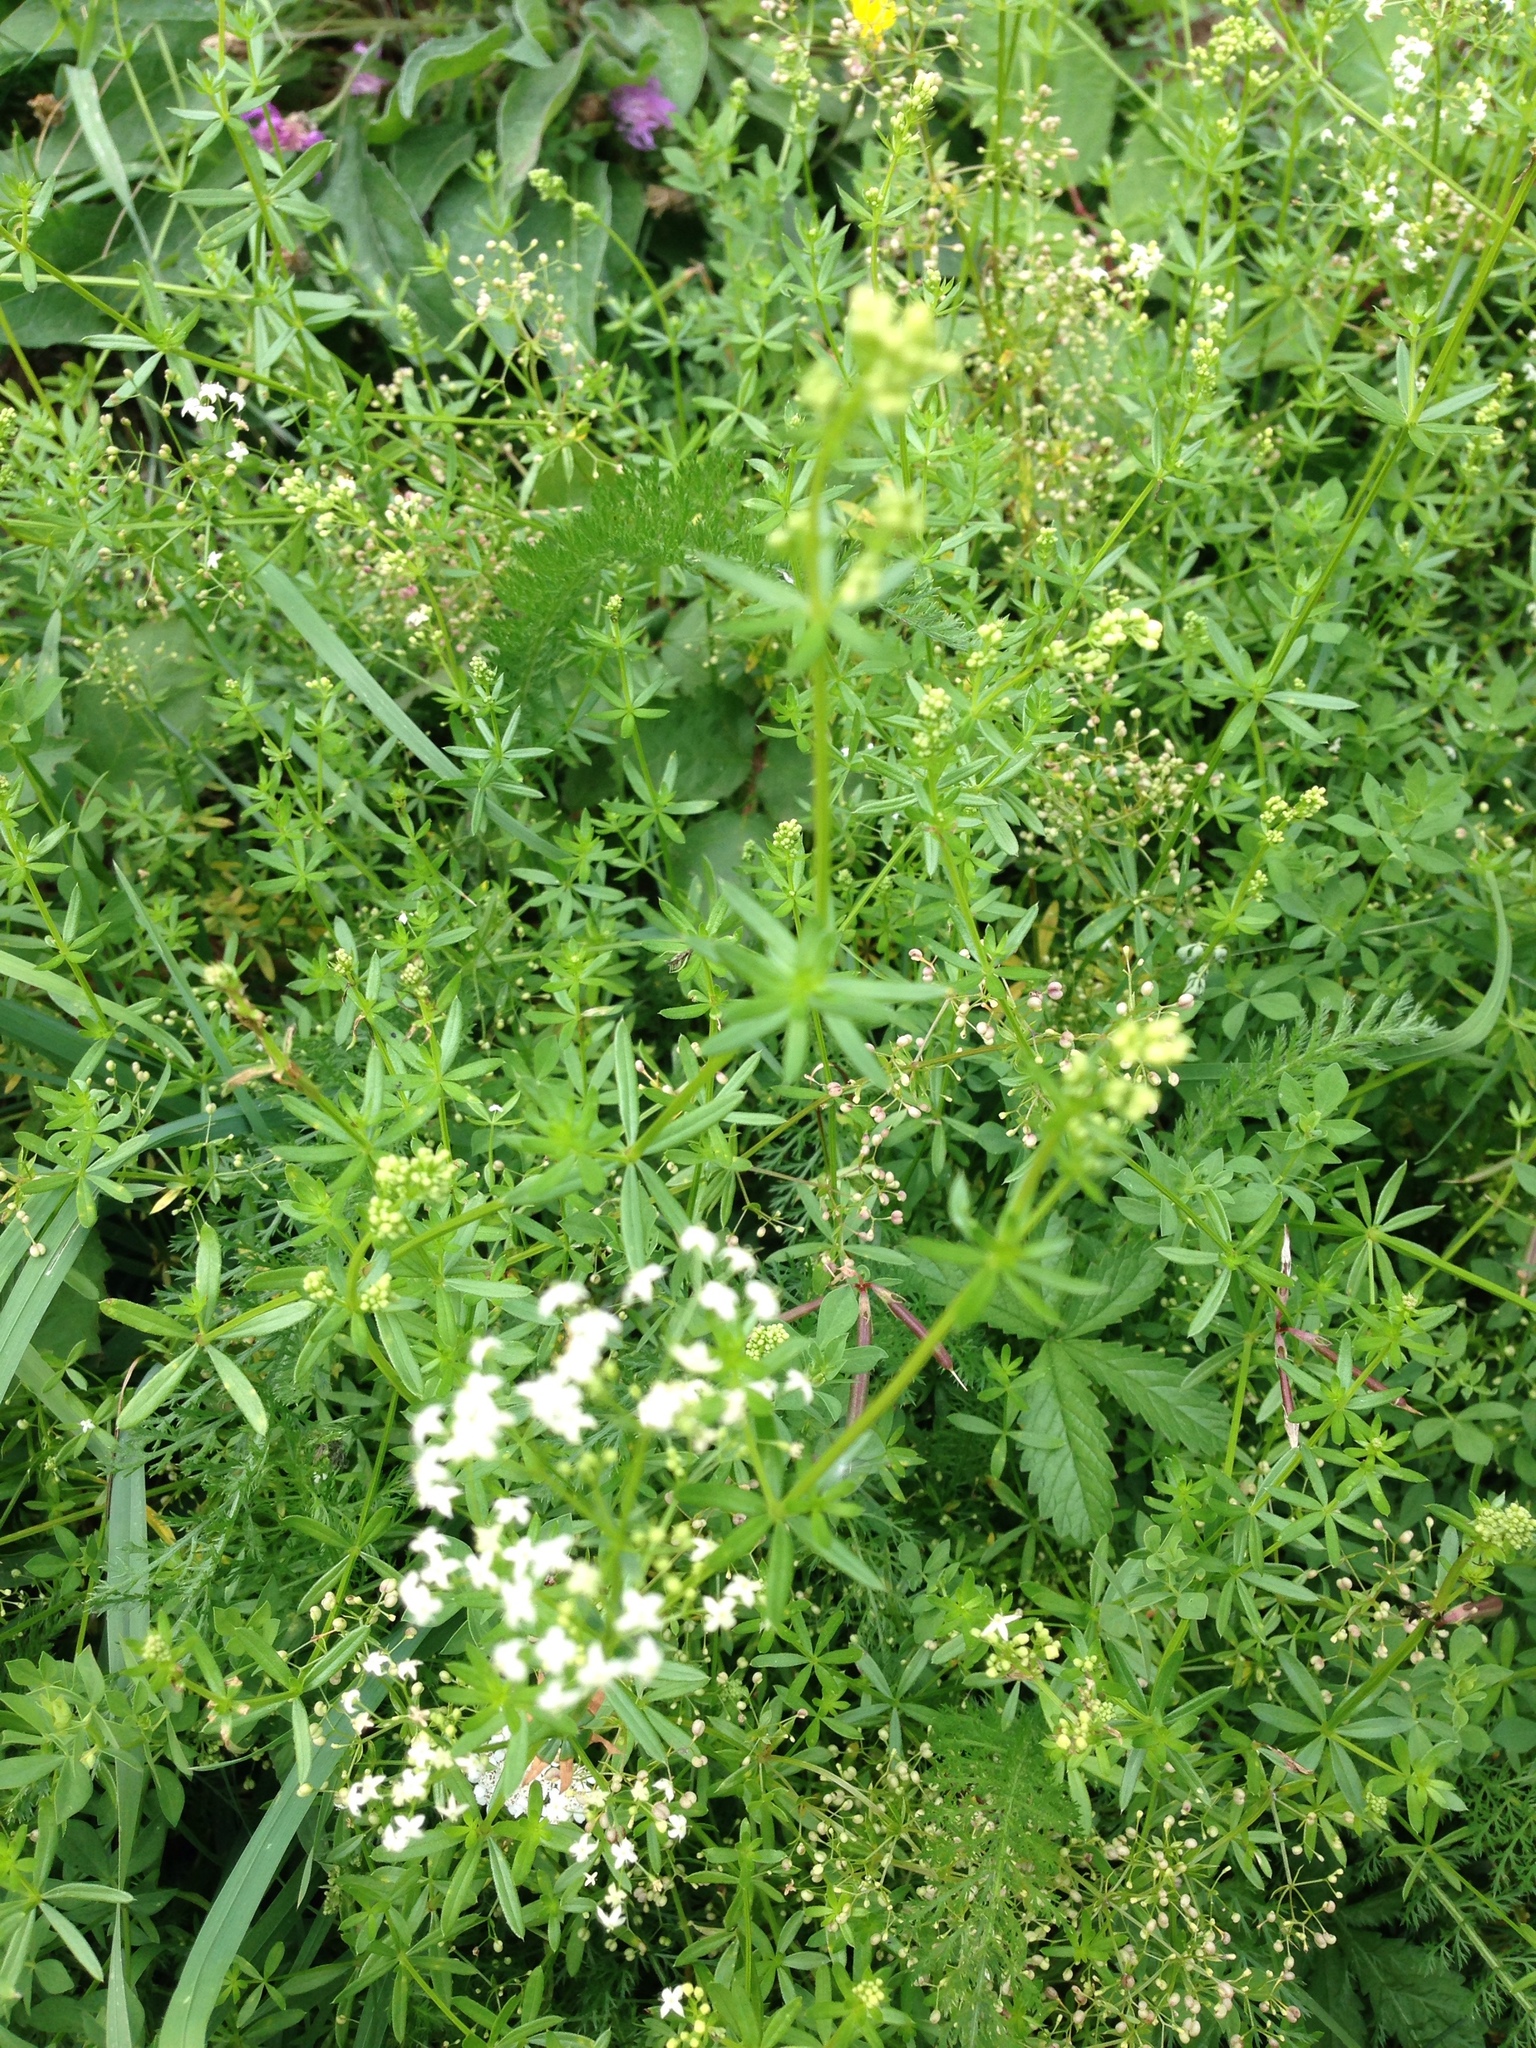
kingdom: Plantae
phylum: Tracheophyta
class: Magnoliopsida
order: Gentianales
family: Rubiaceae
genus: Galium
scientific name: Galium album
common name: White bedstraw
